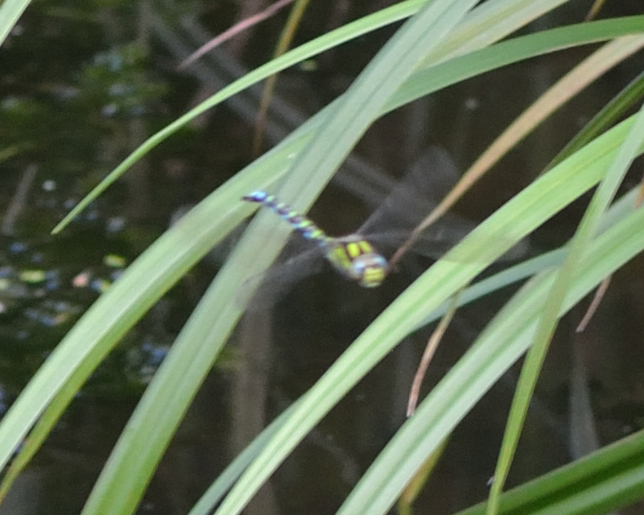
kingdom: Animalia
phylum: Arthropoda
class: Insecta
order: Odonata
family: Aeshnidae
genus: Aeshna
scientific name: Aeshna cyanea
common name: Southern hawker
